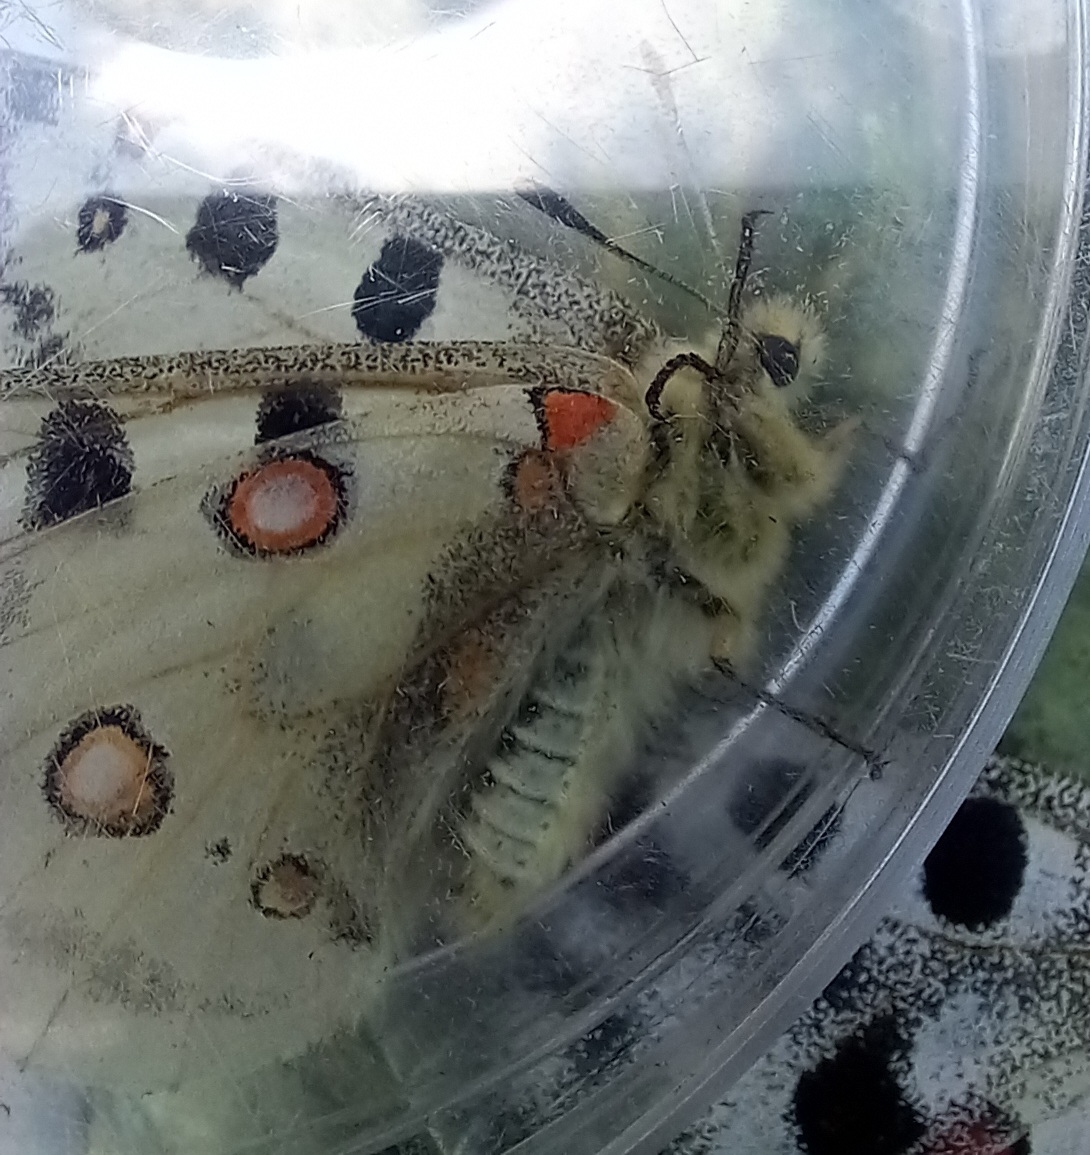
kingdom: Animalia
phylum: Arthropoda
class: Insecta
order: Lepidoptera
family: Papilionidae
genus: Parnassius
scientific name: Parnassius apollo
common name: Apollo
